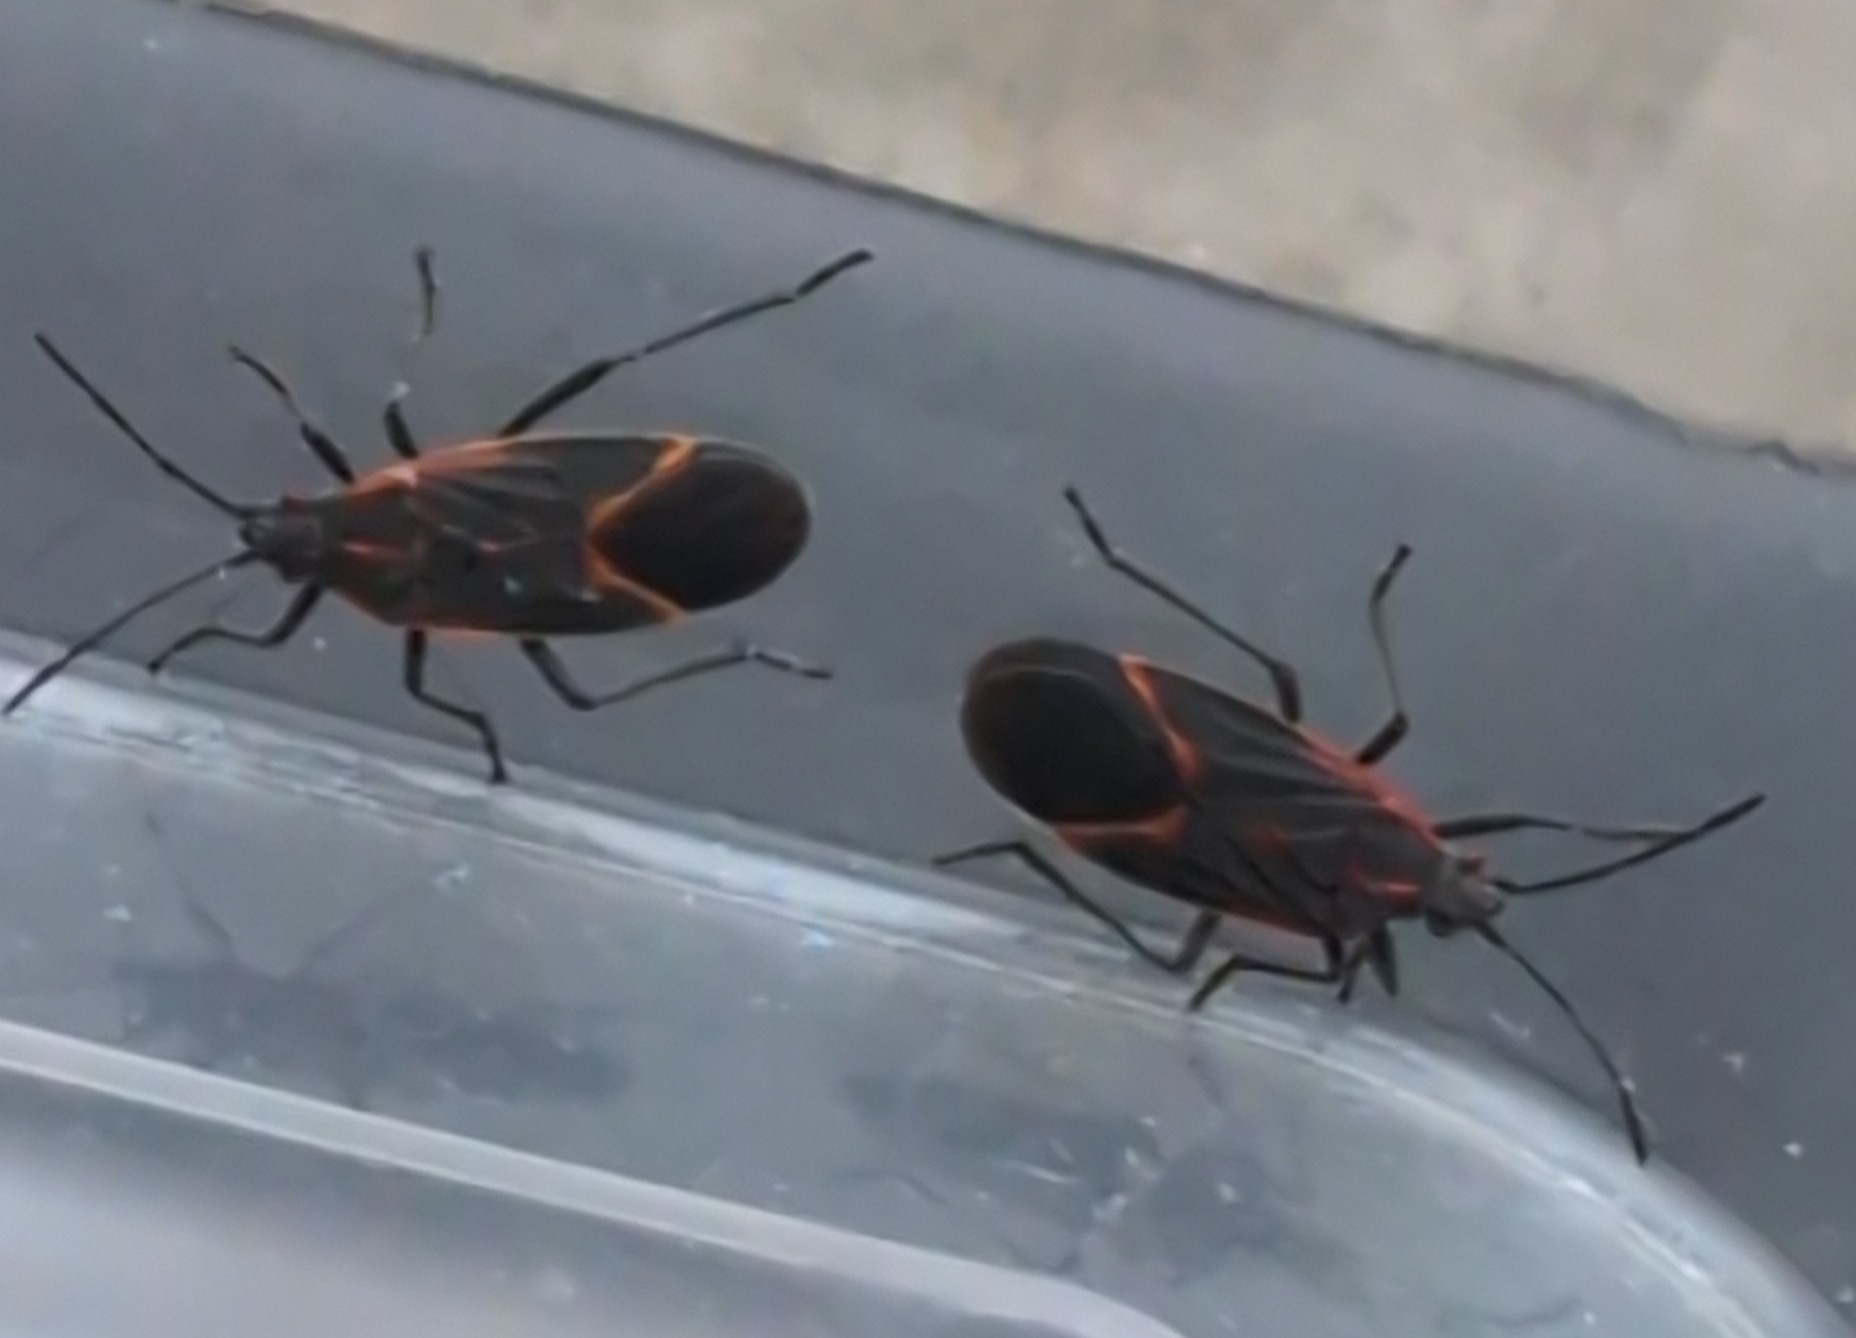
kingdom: Animalia
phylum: Arthropoda
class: Insecta
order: Hemiptera
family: Rhopalidae
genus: Boisea
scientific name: Boisea trivittata
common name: Boxelder bug
